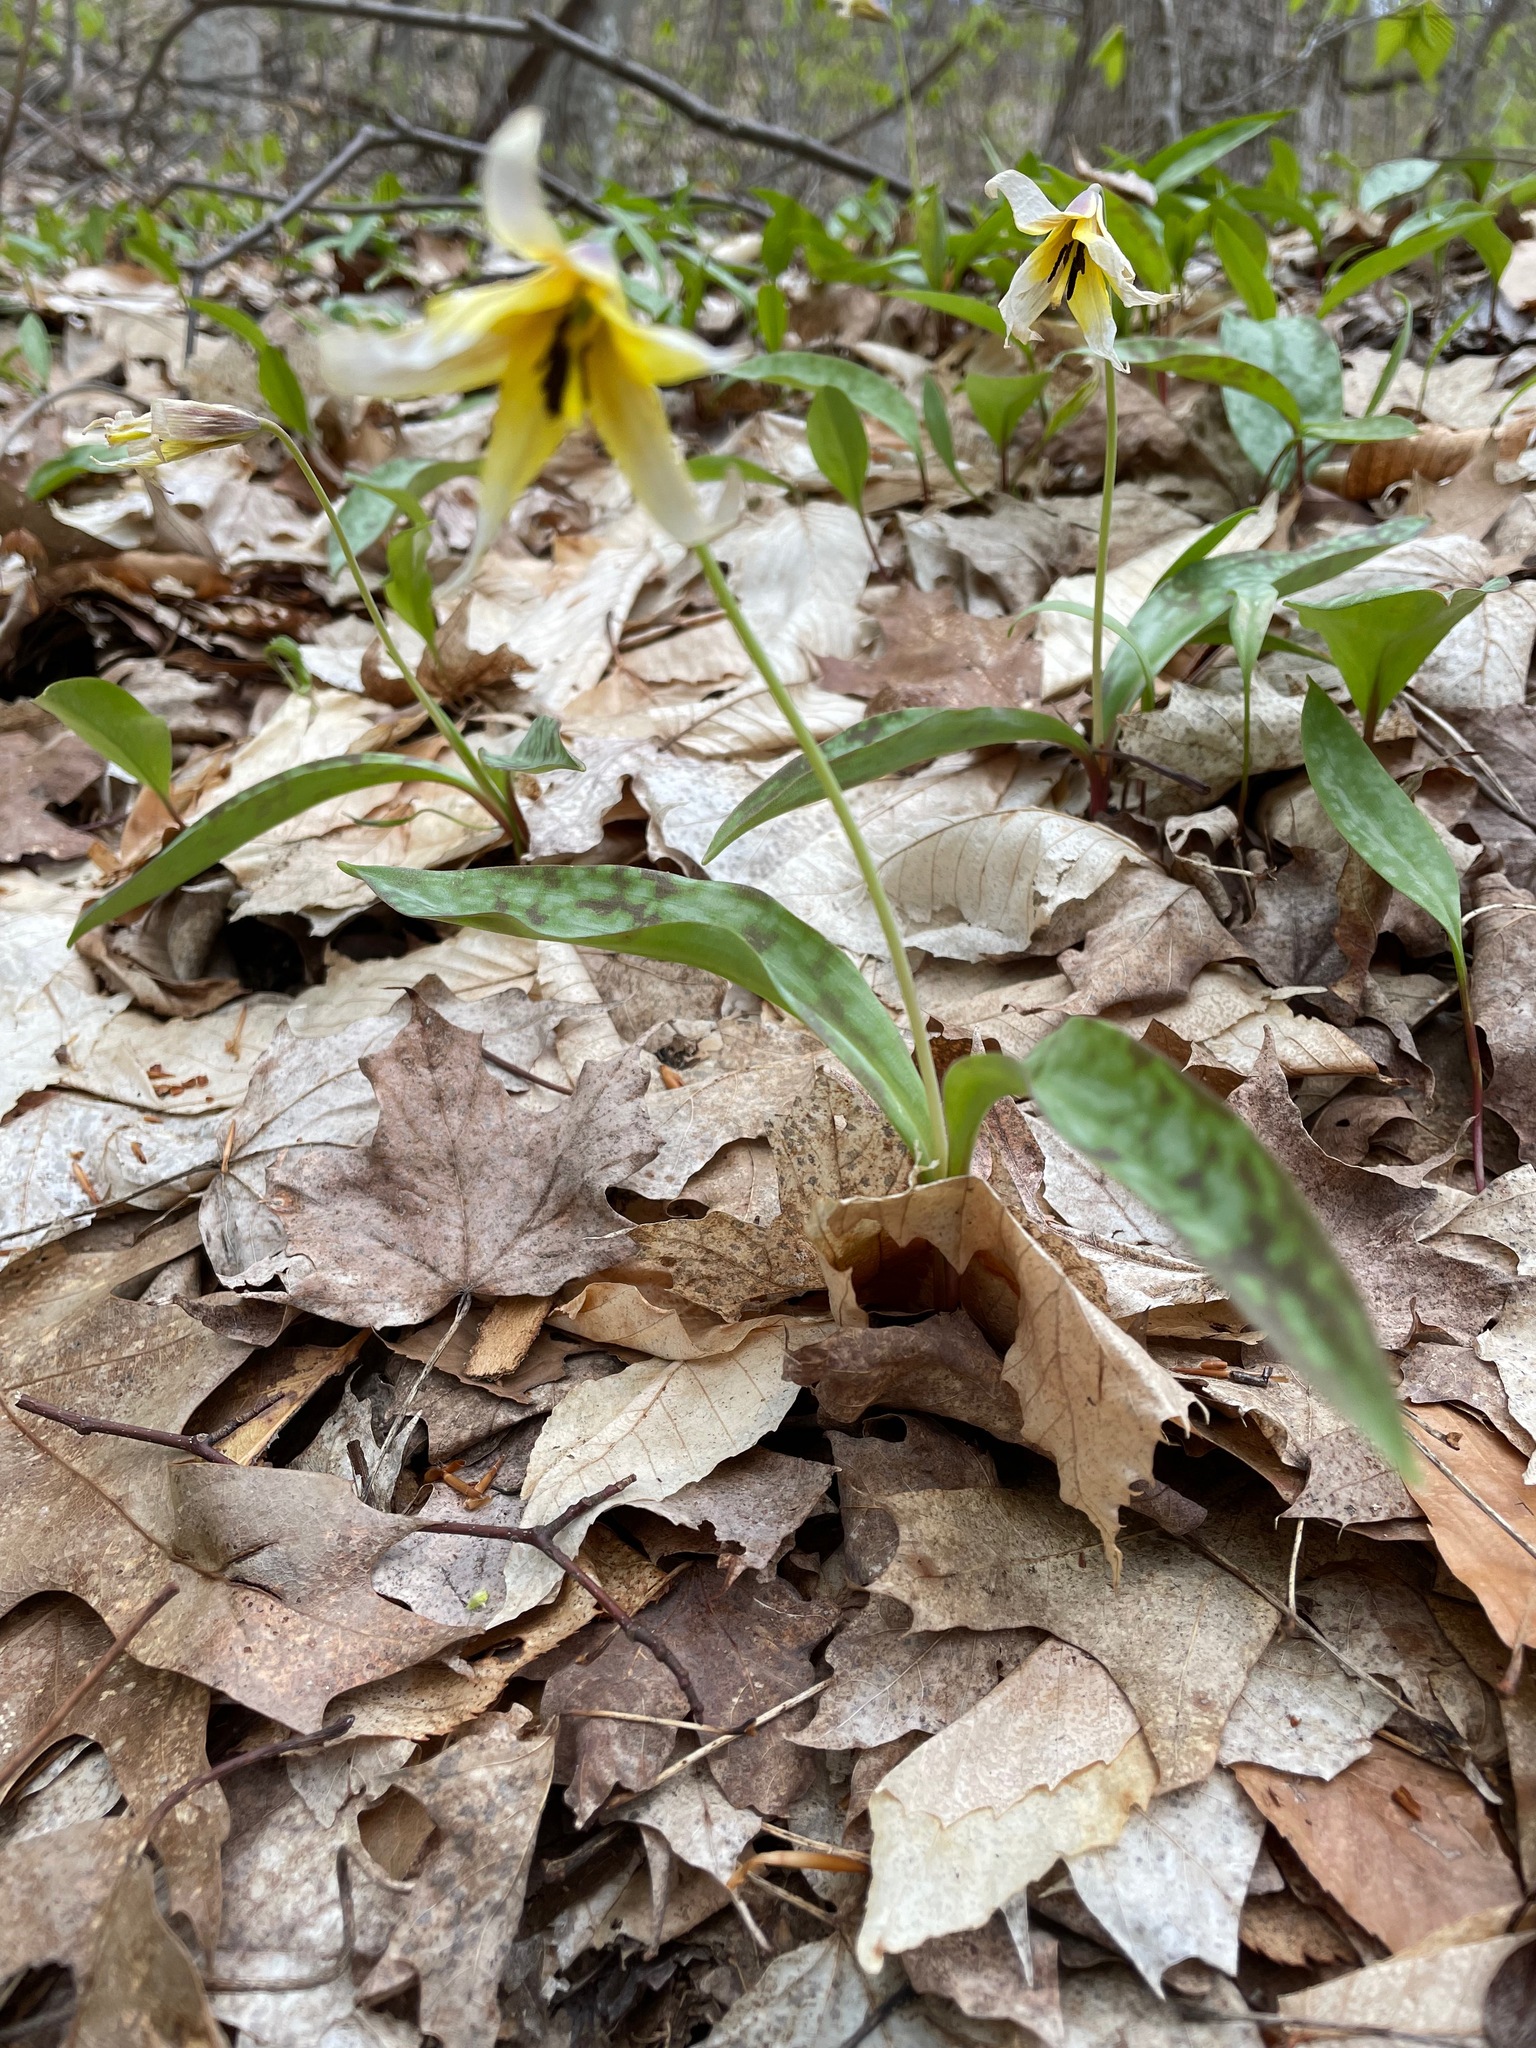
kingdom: Plantae
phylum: Tracheophyta
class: Liliopsida
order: Liliales
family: Liliaceae
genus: Erythronium
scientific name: Erythronium americanum
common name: Yellow adder's-tongue
